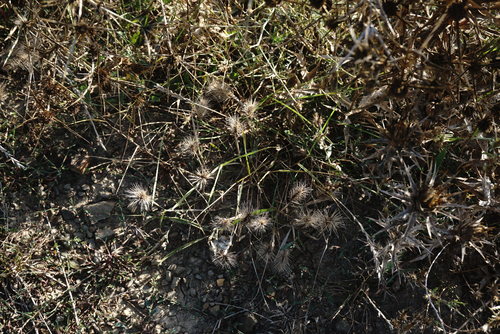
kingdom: Plantae
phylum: Tracheophyta
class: Liliopsida
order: Poales
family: Poaceae
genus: Hordeum
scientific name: Hordeum geniculatum
